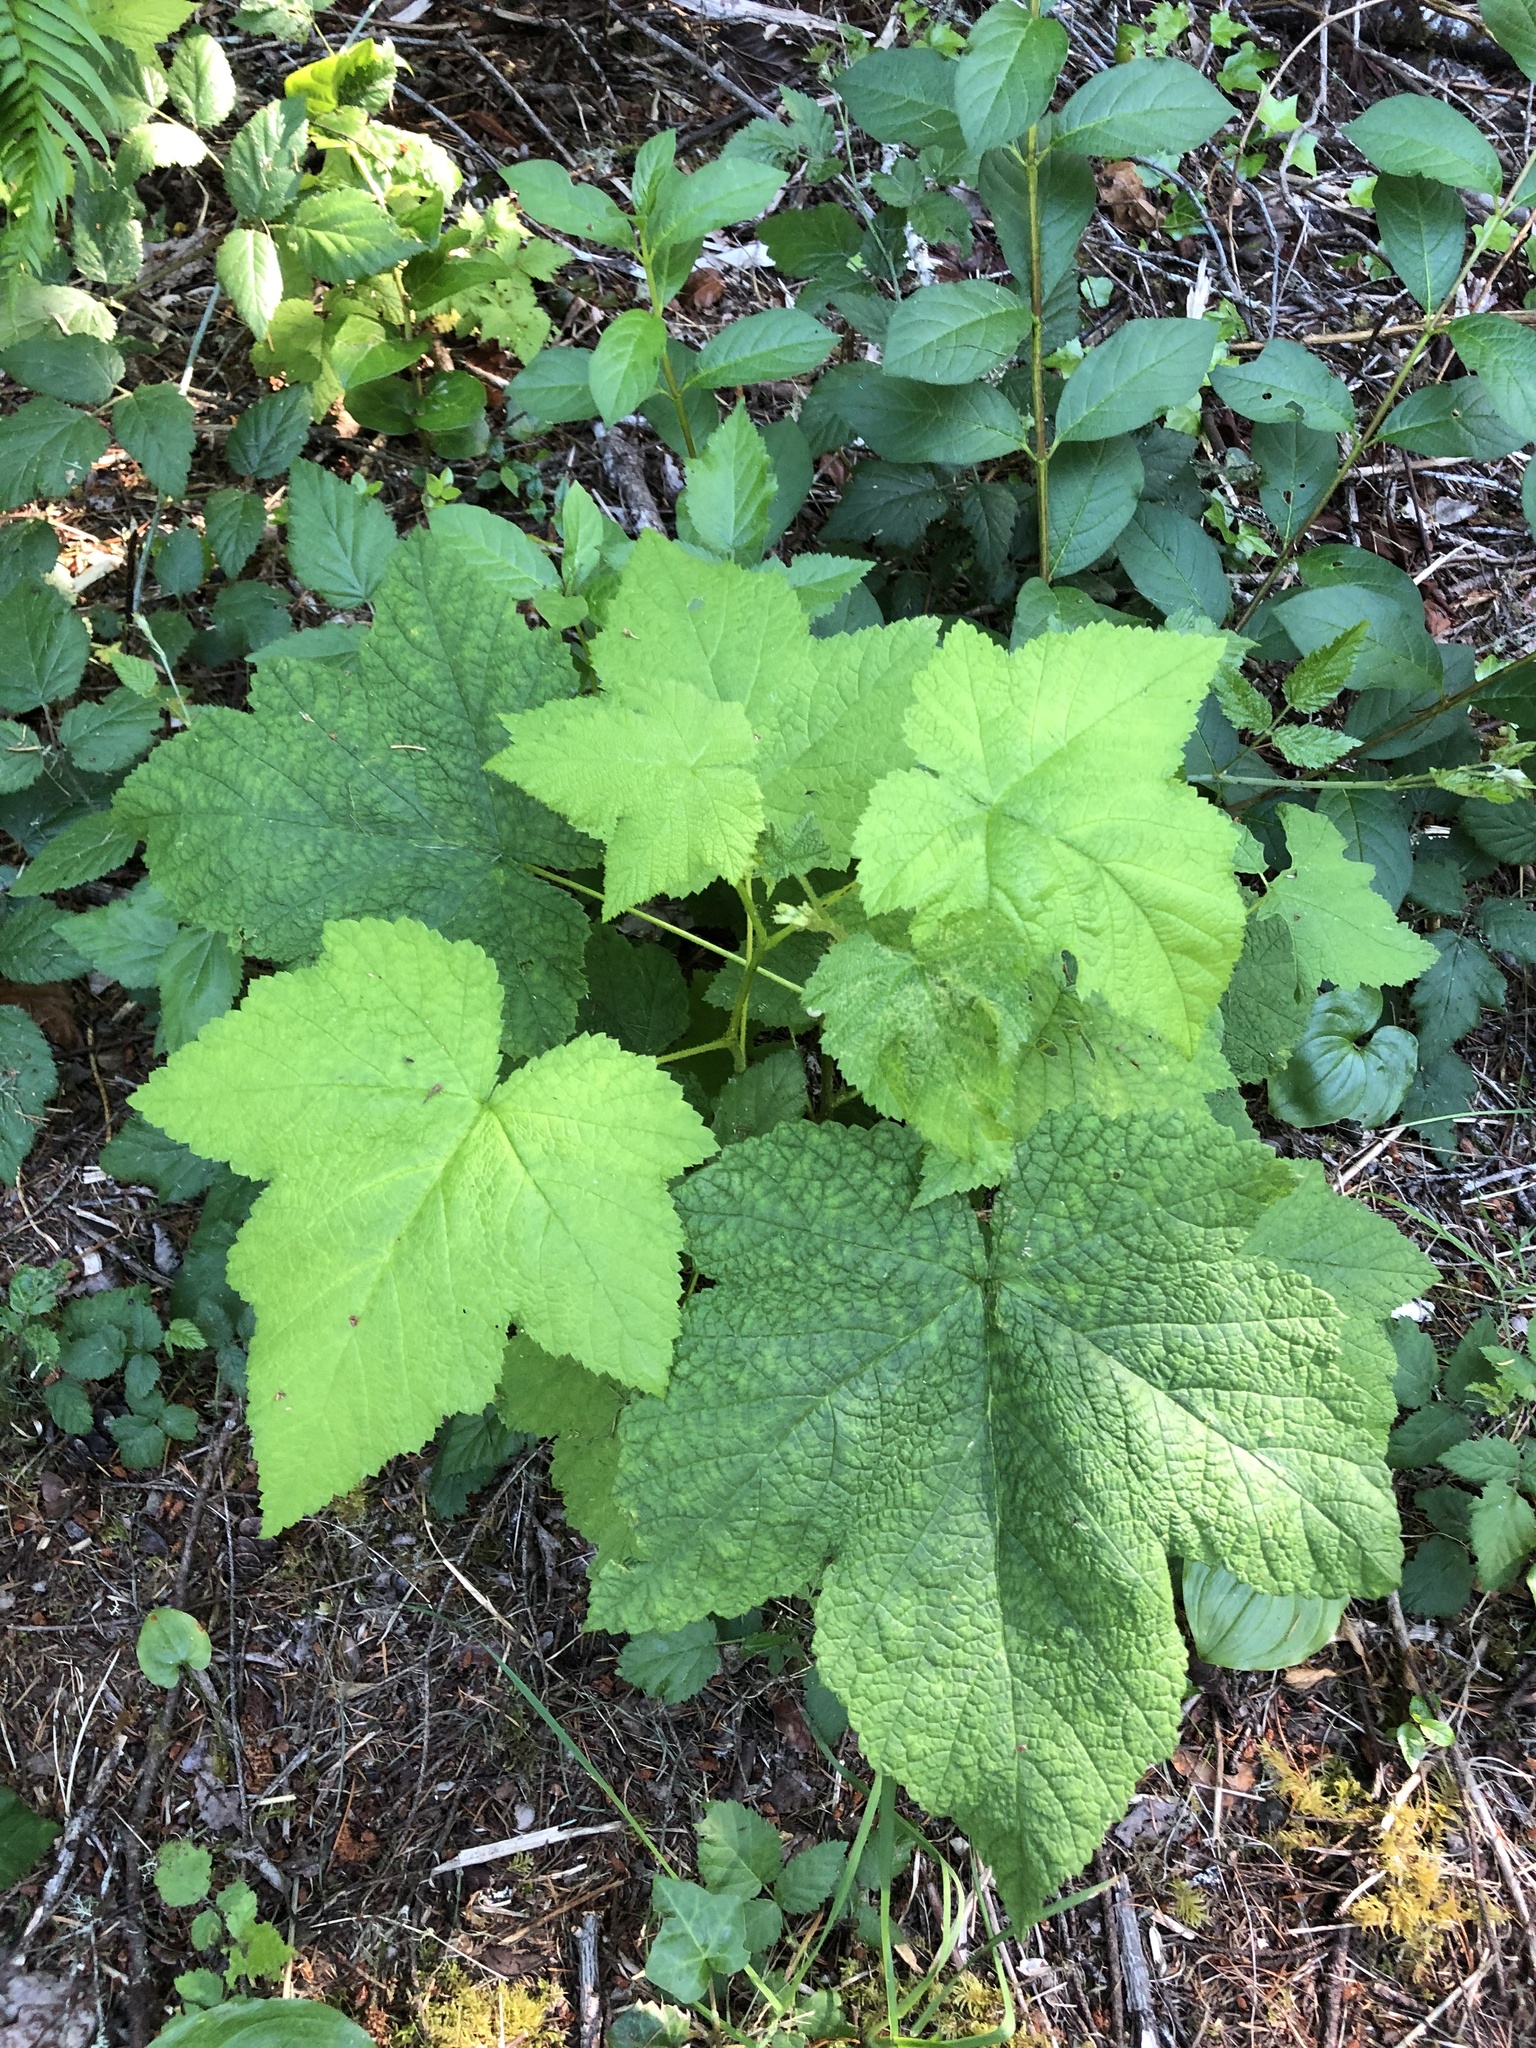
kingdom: Plantae
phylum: Tracheophyta
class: Magnoliopsida
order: Rosales
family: Rosaceae
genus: Rubus
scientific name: Rubus parviflorus
